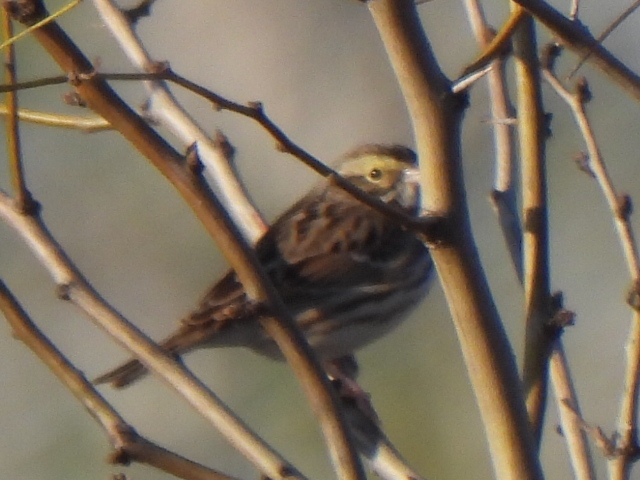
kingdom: Animalia
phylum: Chordata
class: Aves
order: Passeriformes
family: Passerellidae
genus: Passerculus
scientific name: Passerculus sandwichensis
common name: Savannah sparrow
